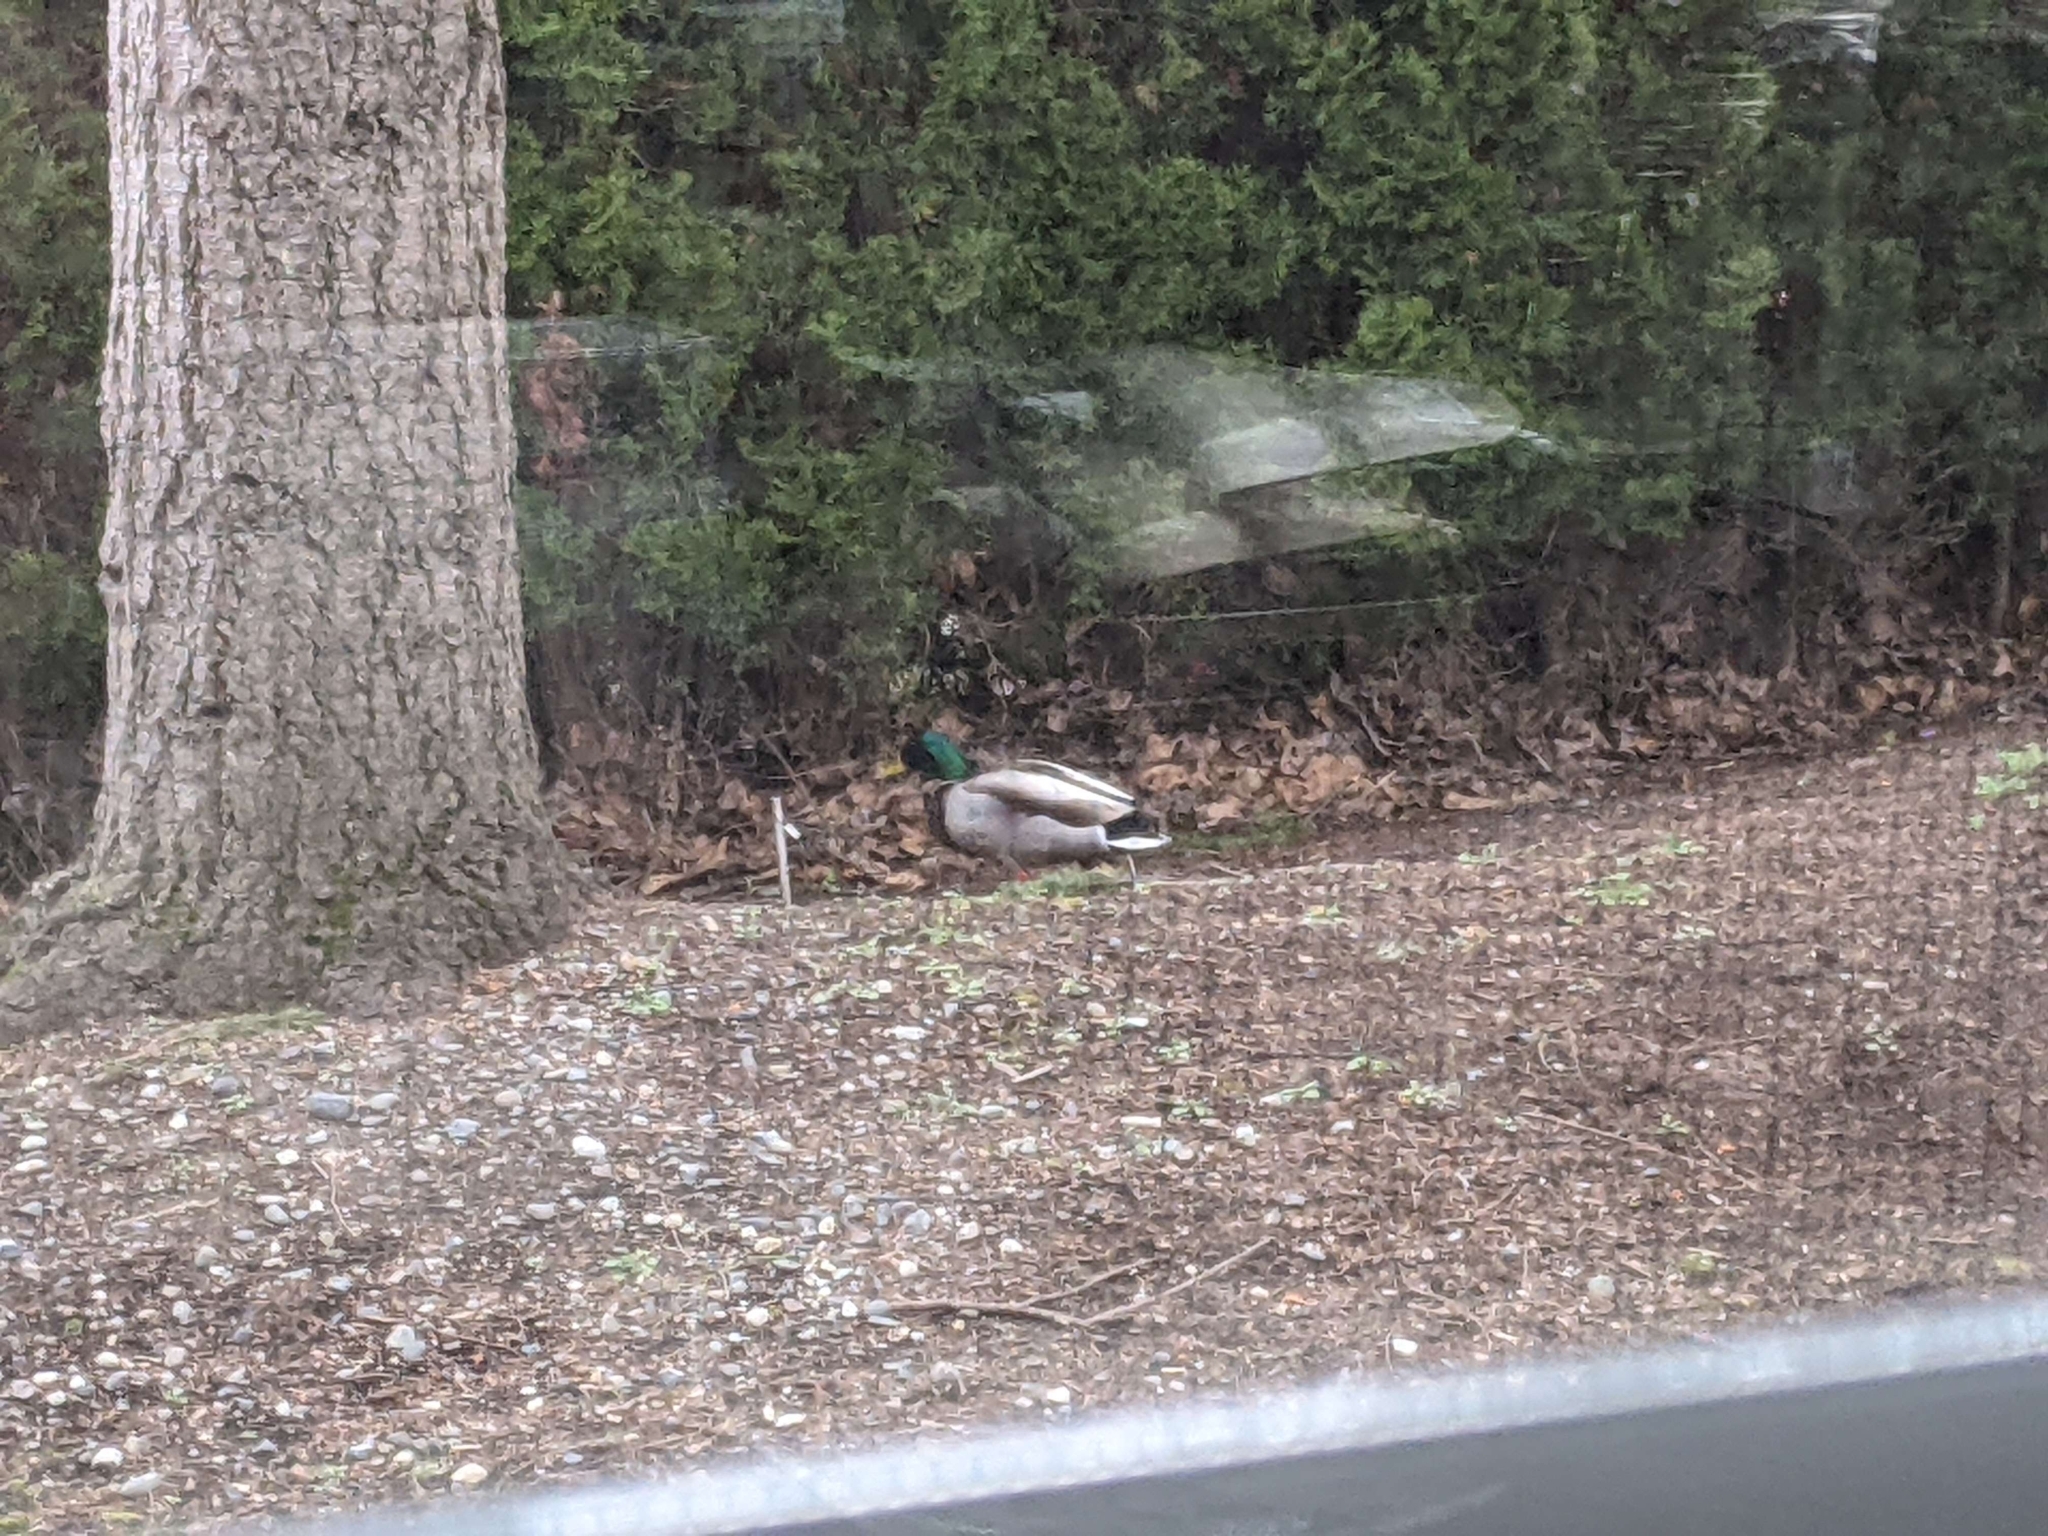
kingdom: Animalia
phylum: Chordata
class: Aves
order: Anseriformes
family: Anatidae
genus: Anas
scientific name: Anas platyrhynchos
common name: Mallard
